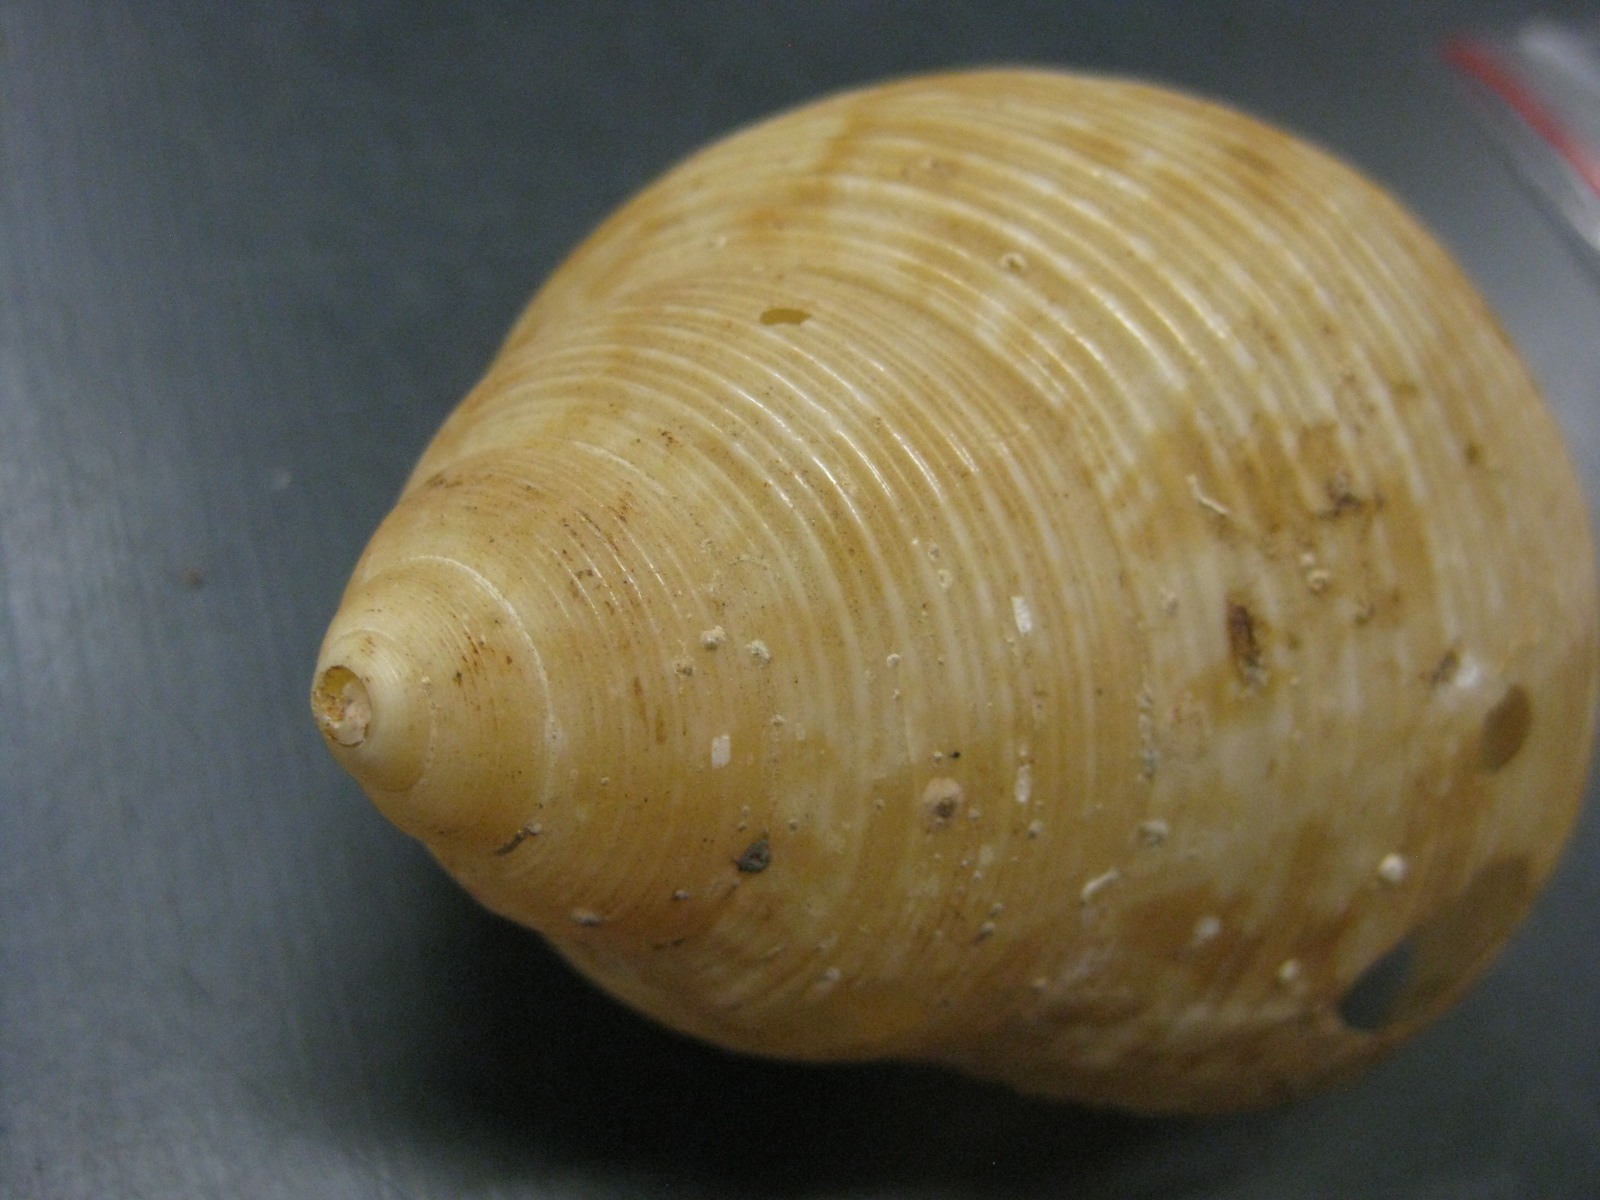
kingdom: Animalia
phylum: Mollusca
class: Gastropoda
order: Littorinimorpha
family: Tonnidae
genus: Eudolium
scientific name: Eudolium crosseanum
